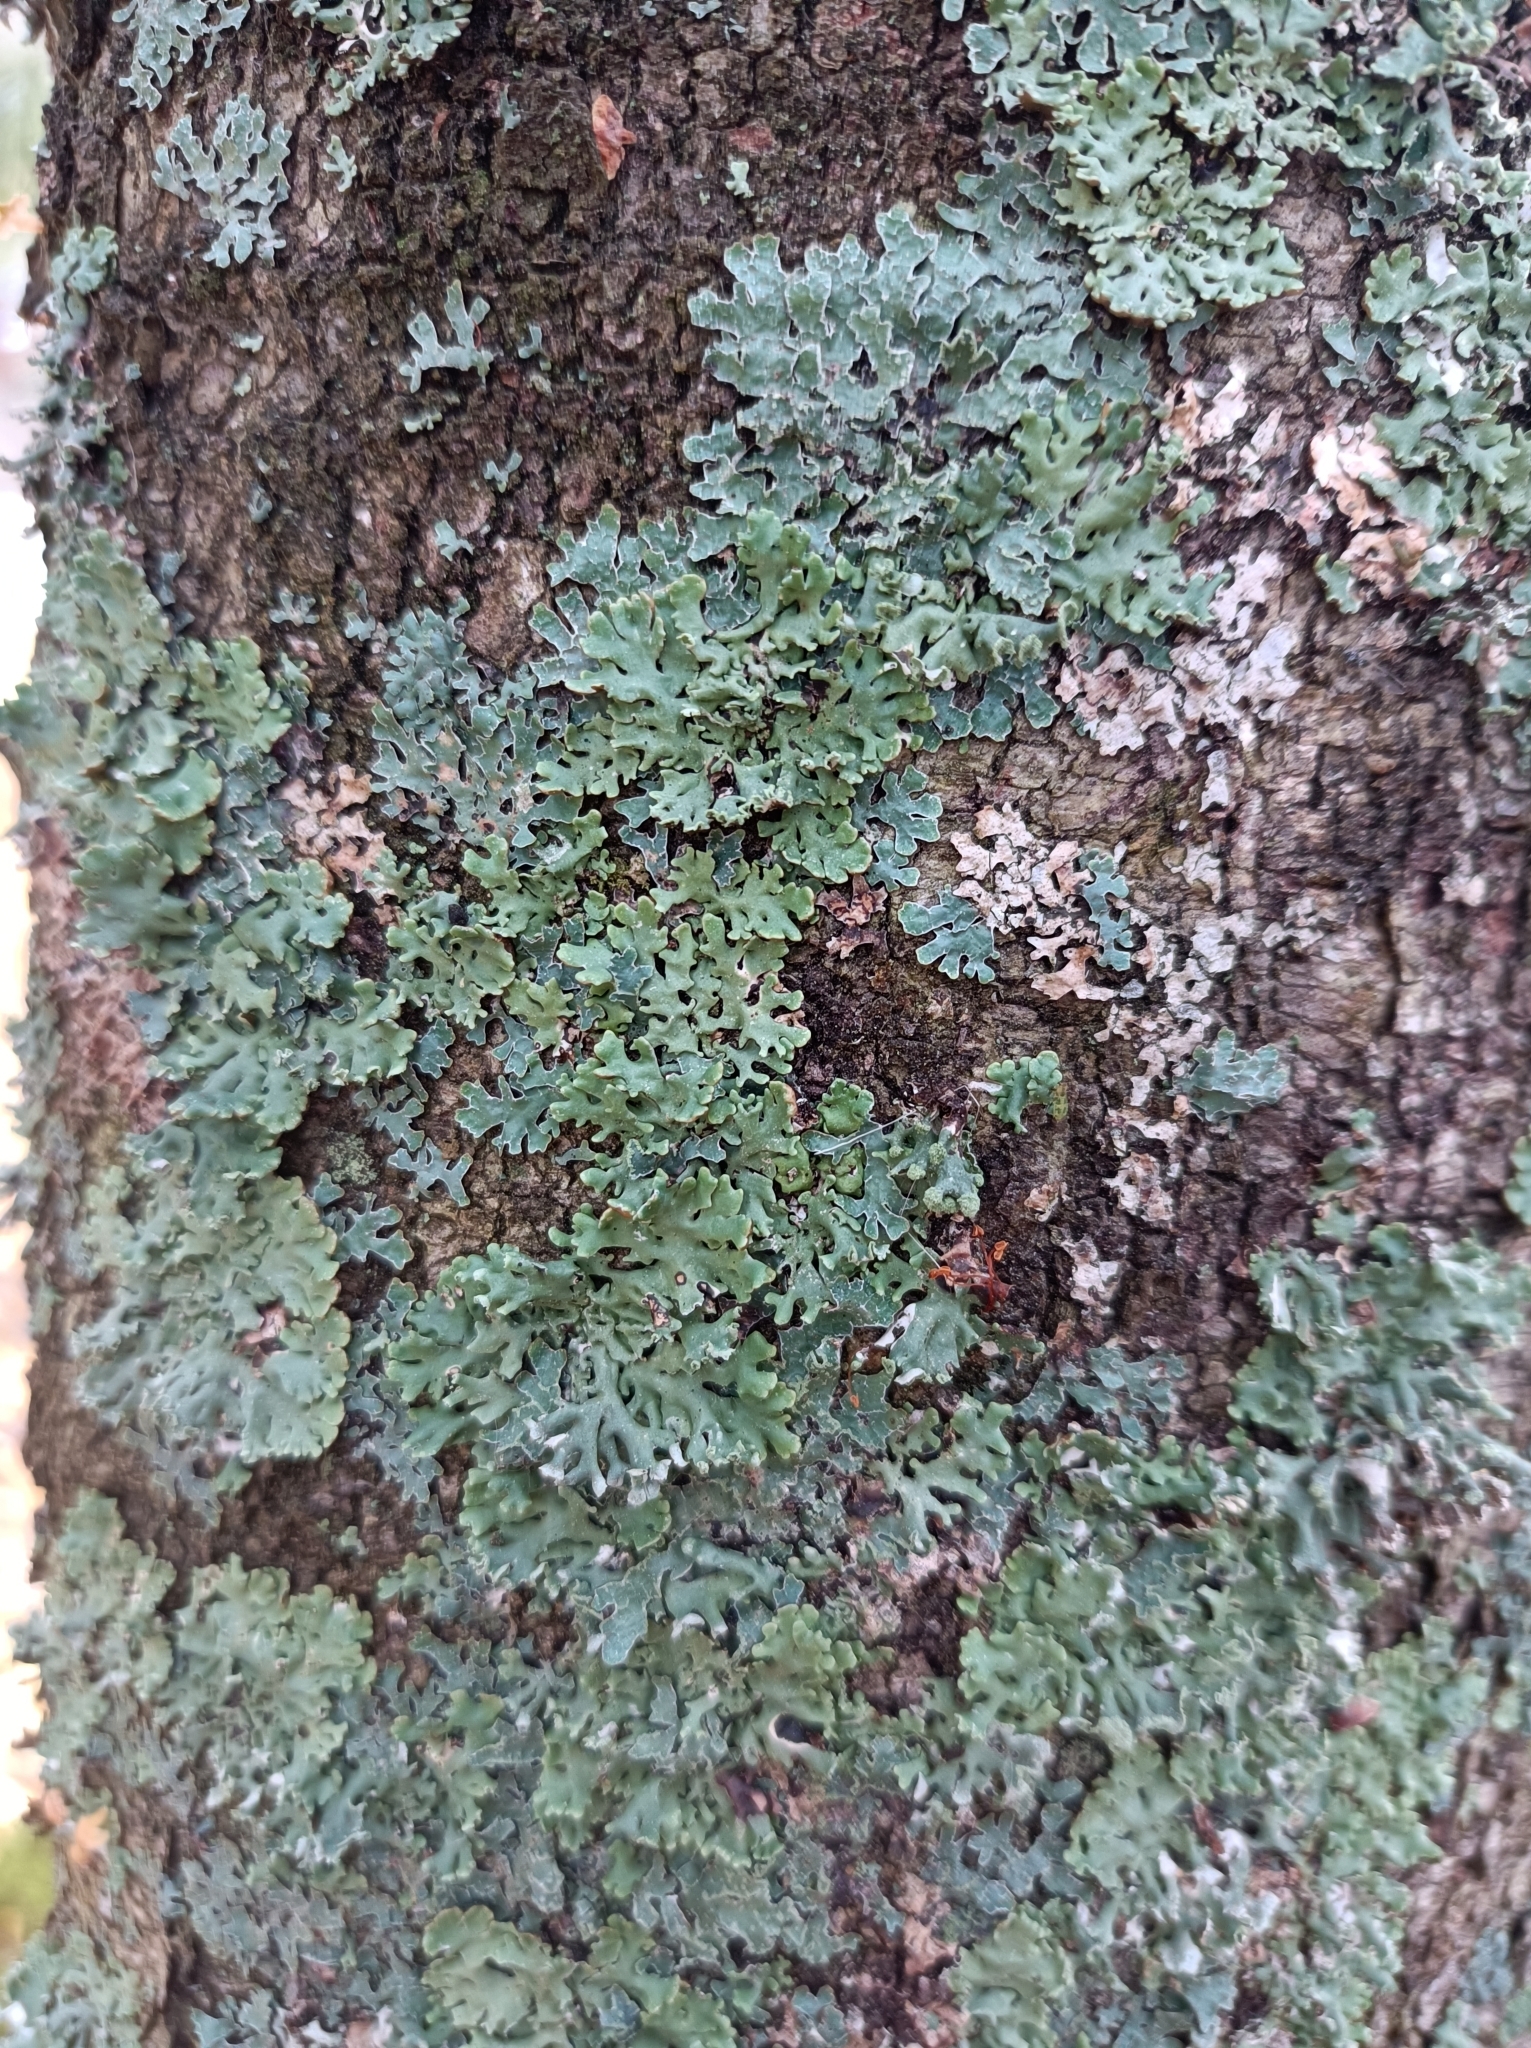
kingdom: Fungi
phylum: Ascomycota
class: Lecanoromycetes
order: Lecanorales
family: Parmeliaceae
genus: Parmelia
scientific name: Parmelia sulcata
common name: Netted shield lichen
